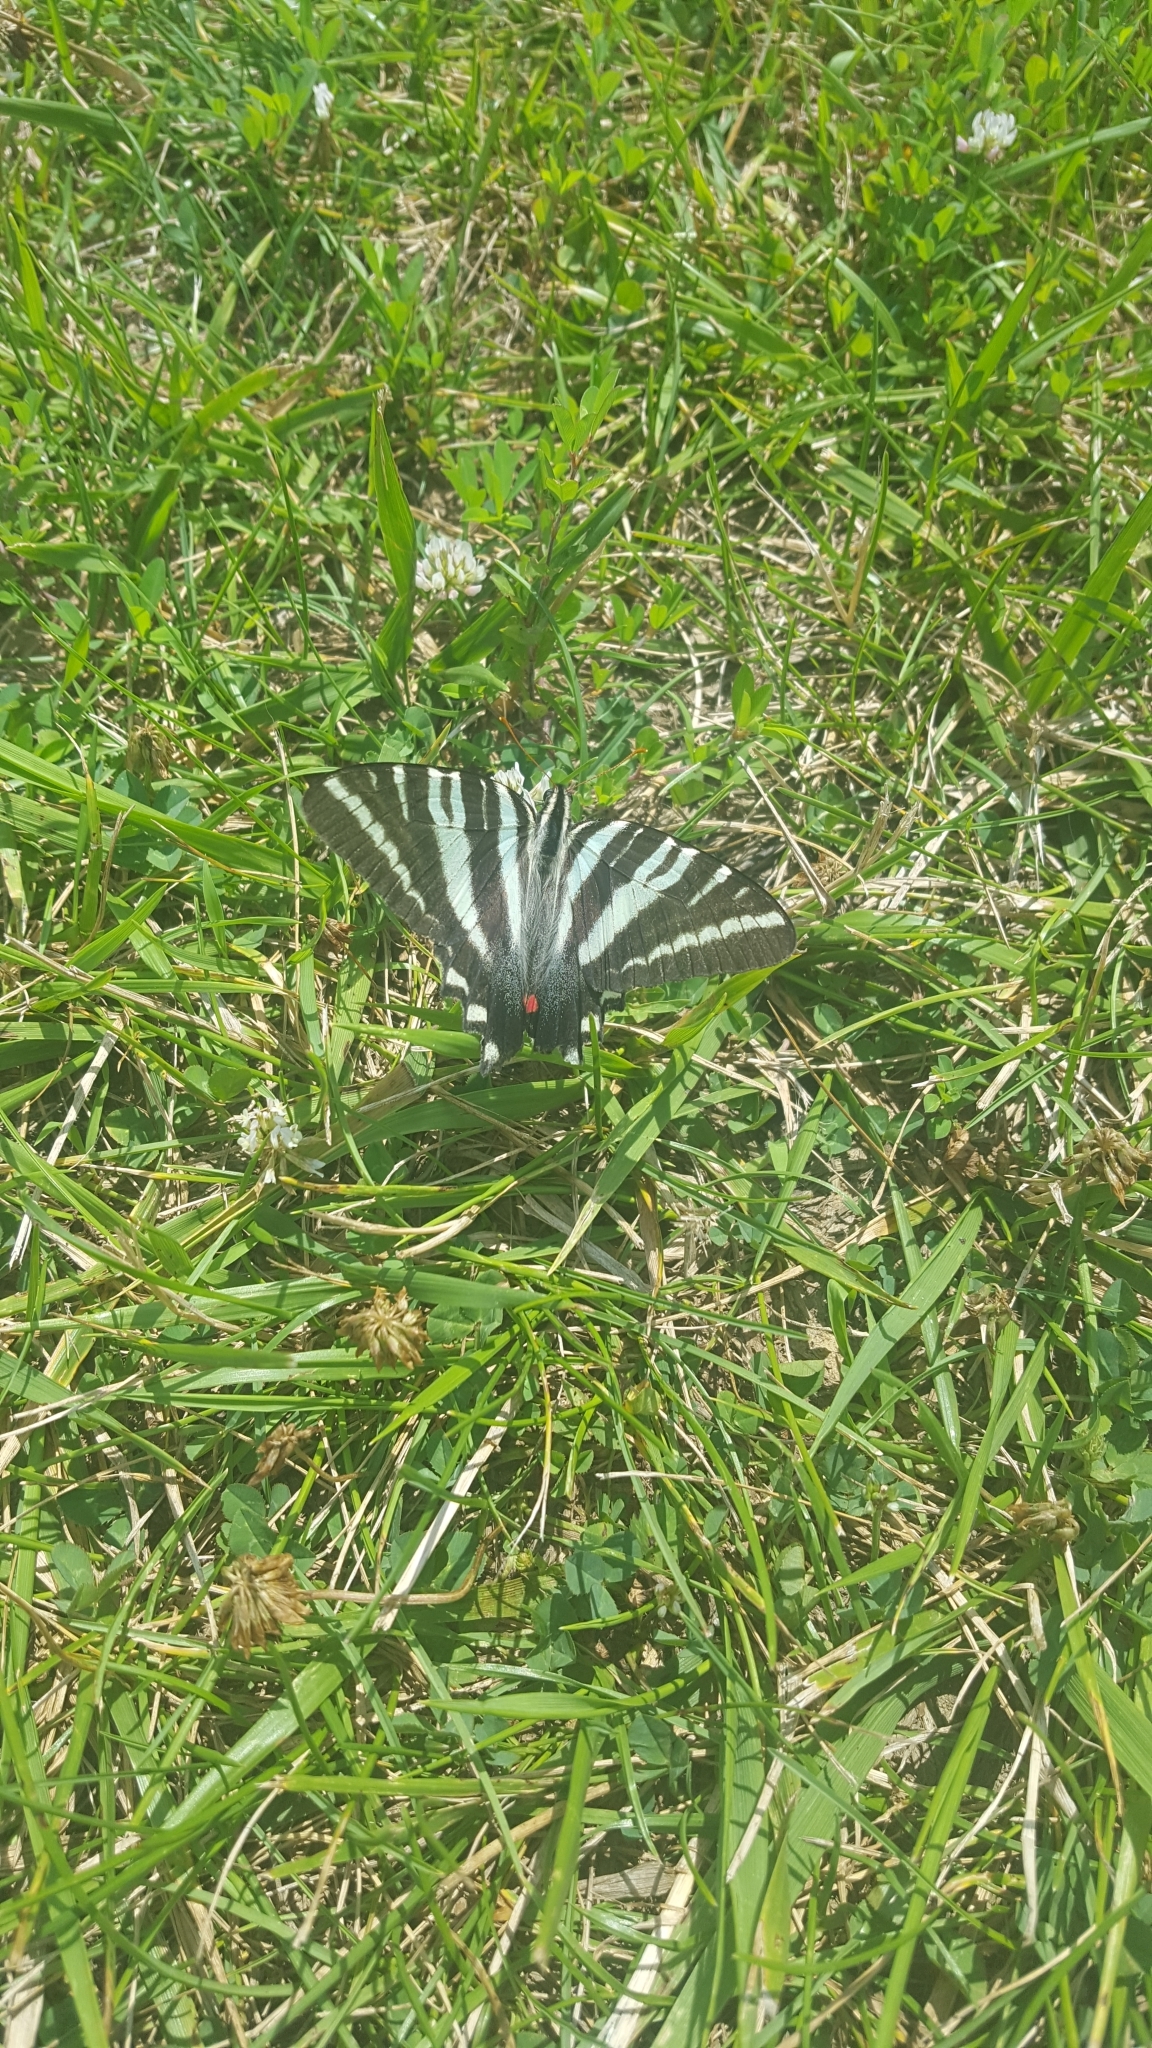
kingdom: Animalia
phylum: Arthropoda
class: Insecta
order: Lepidoptera
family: Papilionidae
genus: Protographium
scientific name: Protographium marcellus
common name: Zebra swallowtail
